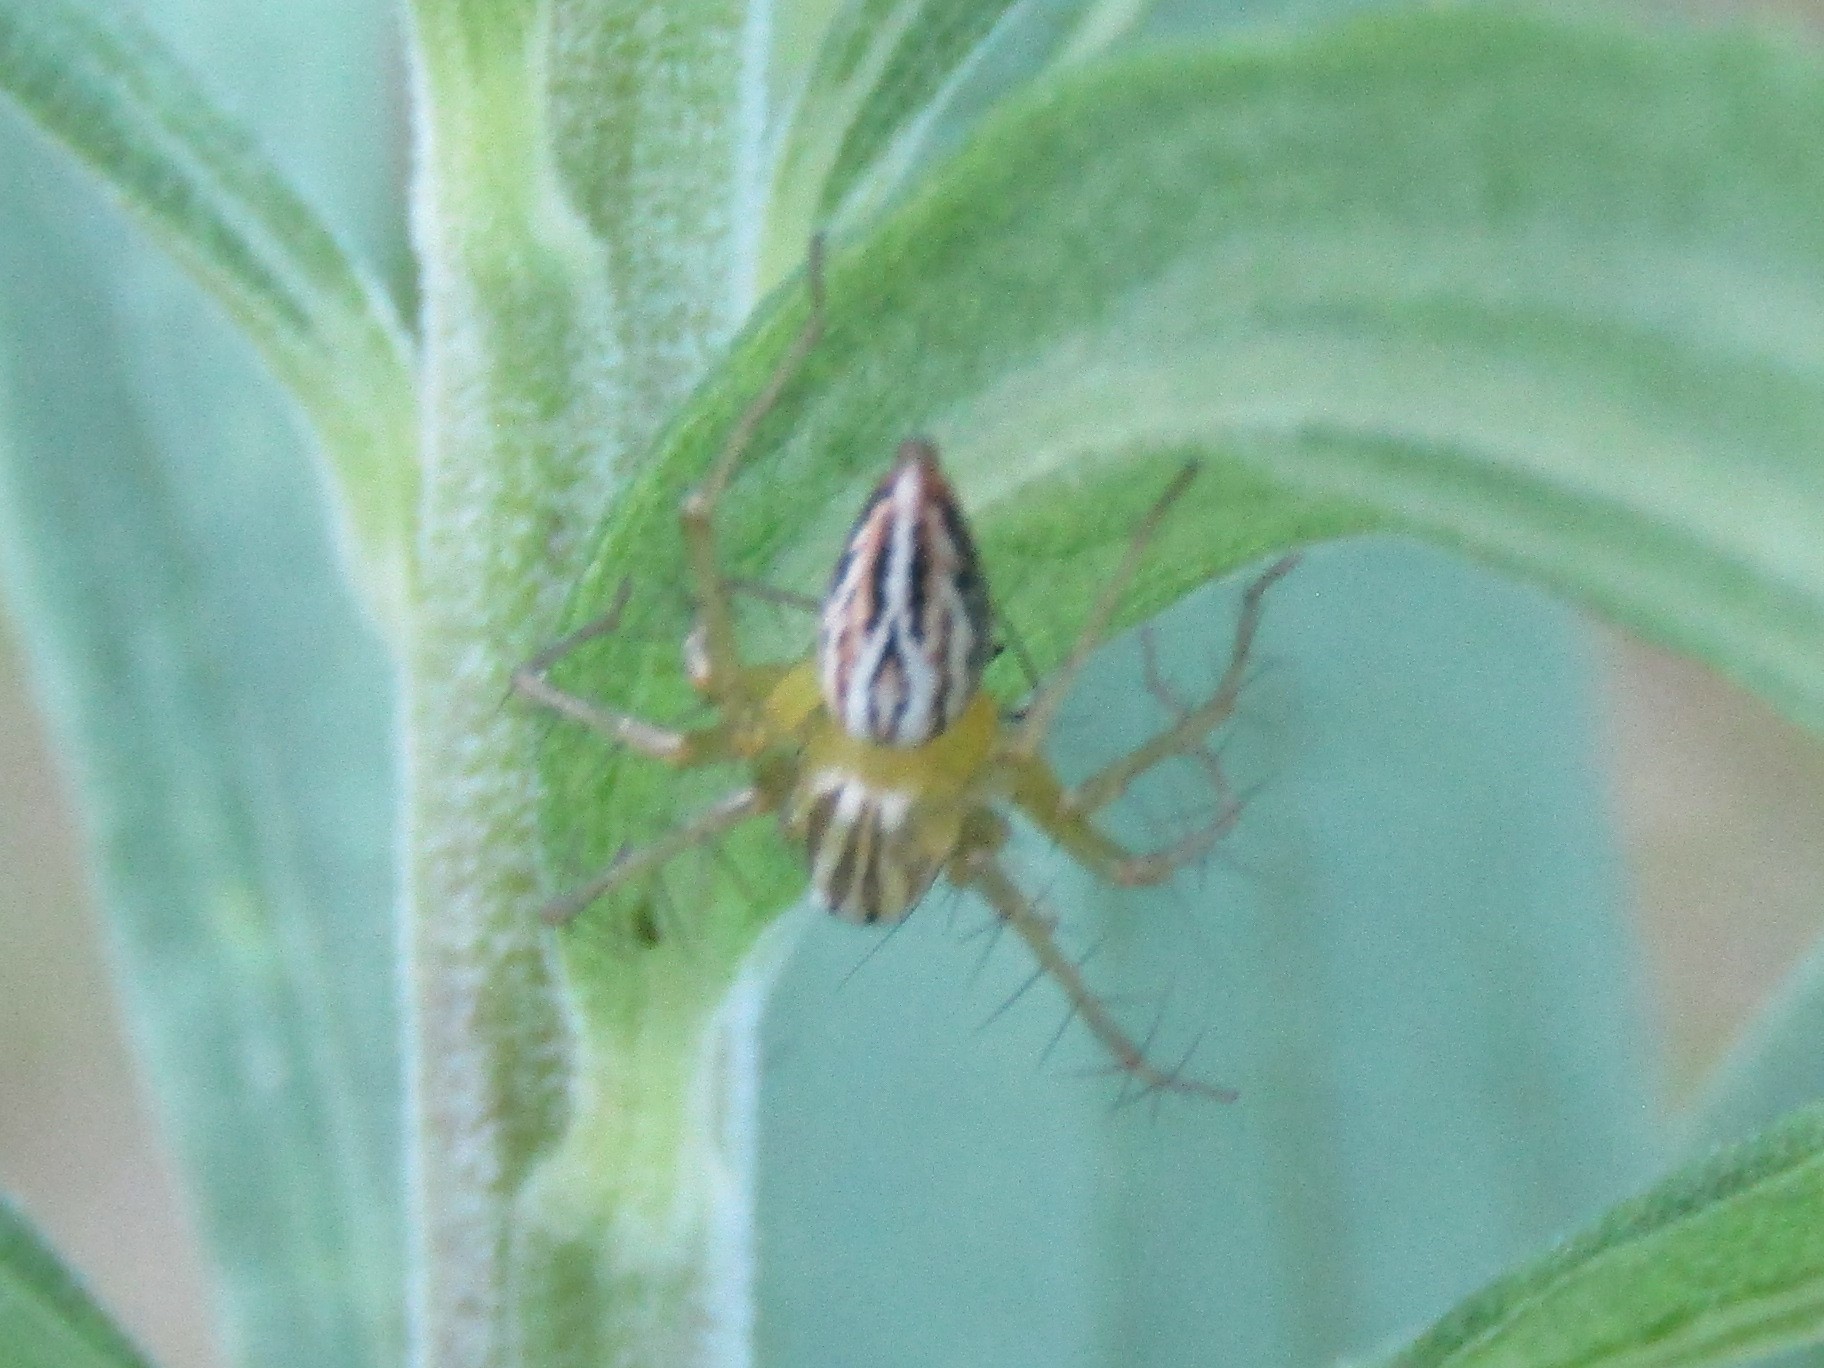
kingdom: Animalia
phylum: Arthropoda
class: Arachnida
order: Araneae
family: Oxyopidae
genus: Oxyopes
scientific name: Oxyopes salticus
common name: Lynx spiders
